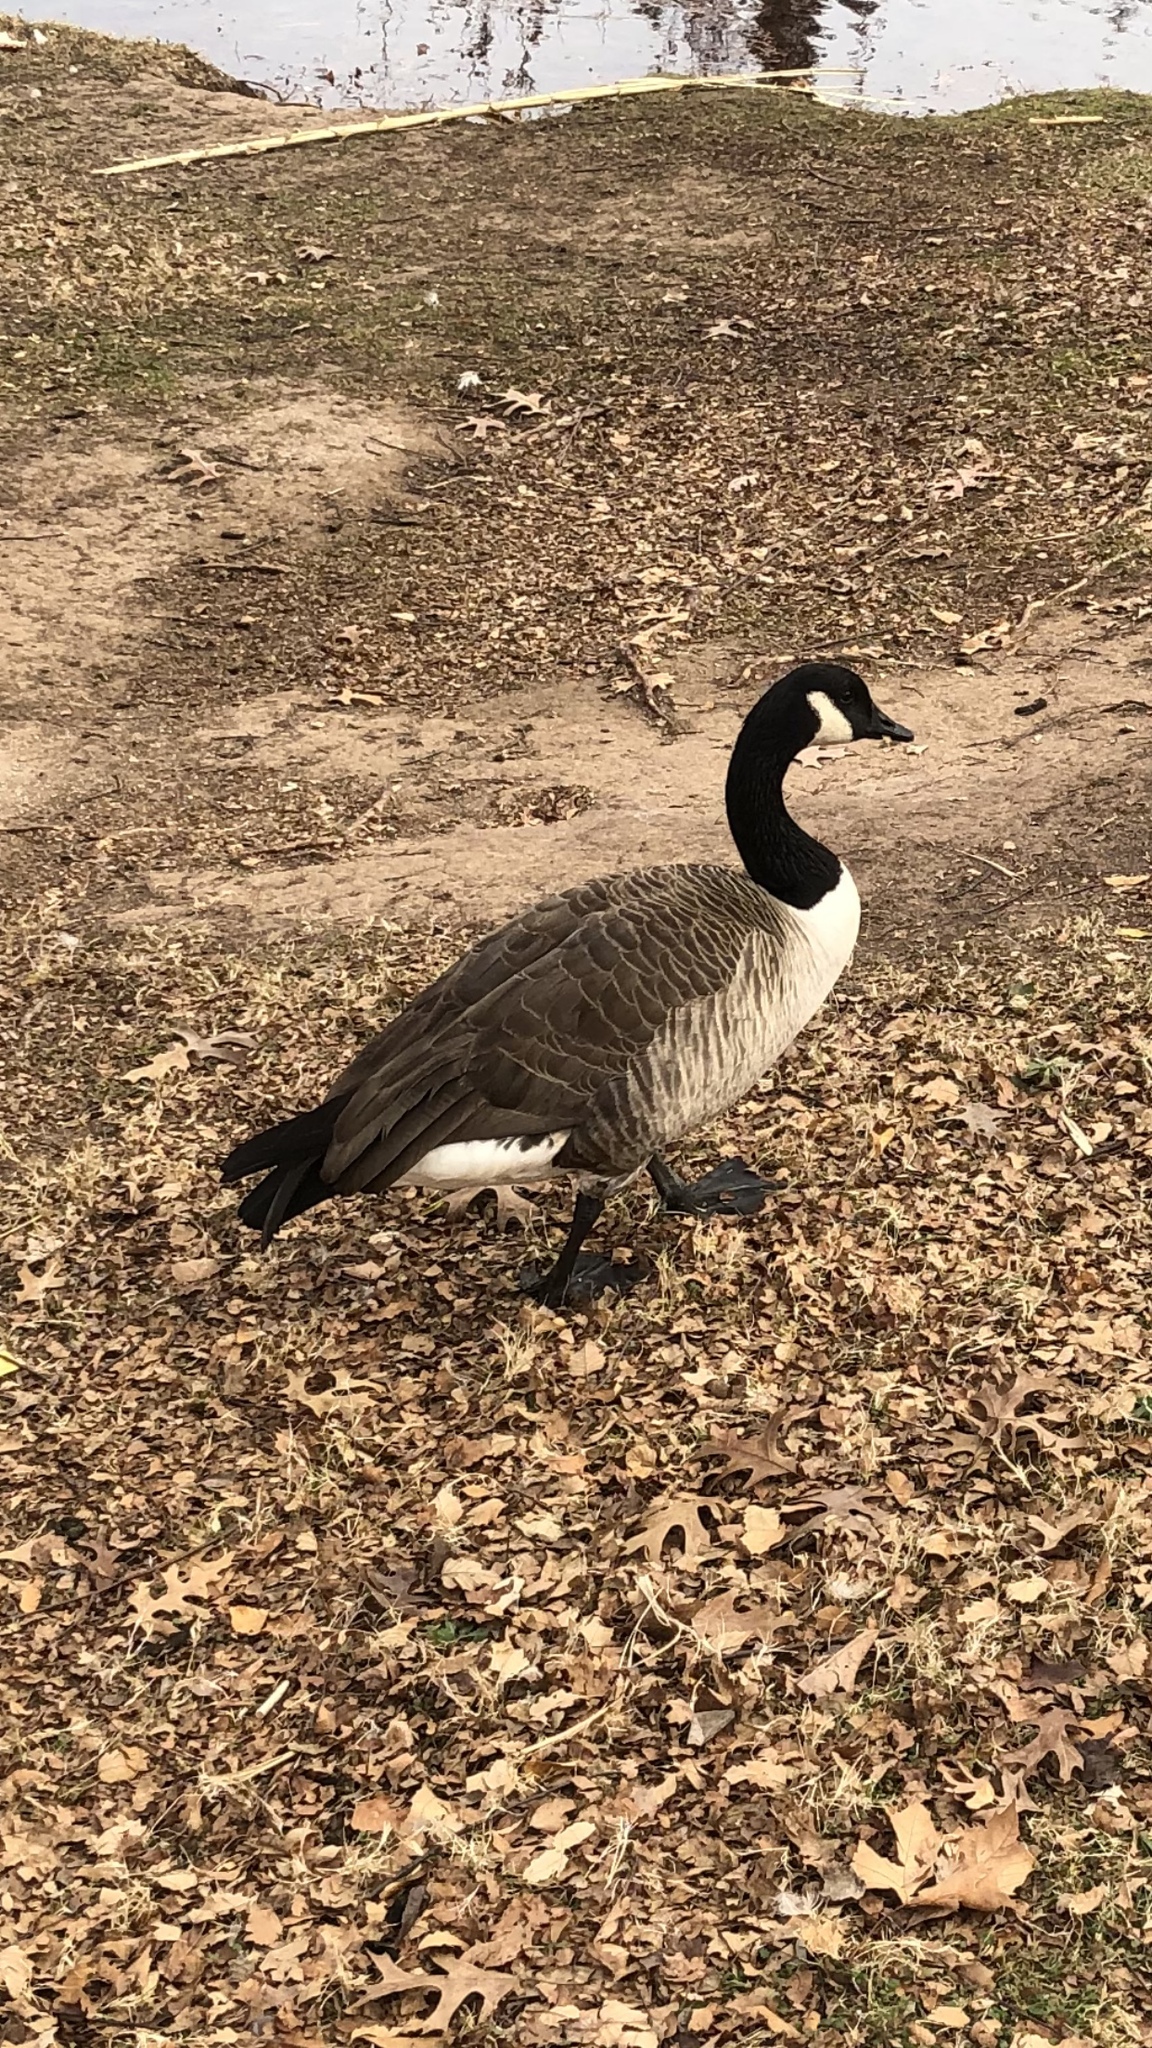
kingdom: Animalia
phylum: Chordata
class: Aves
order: Anseriformes
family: Anatidae
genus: Branta
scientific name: Branta canadensis
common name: Canada goose
